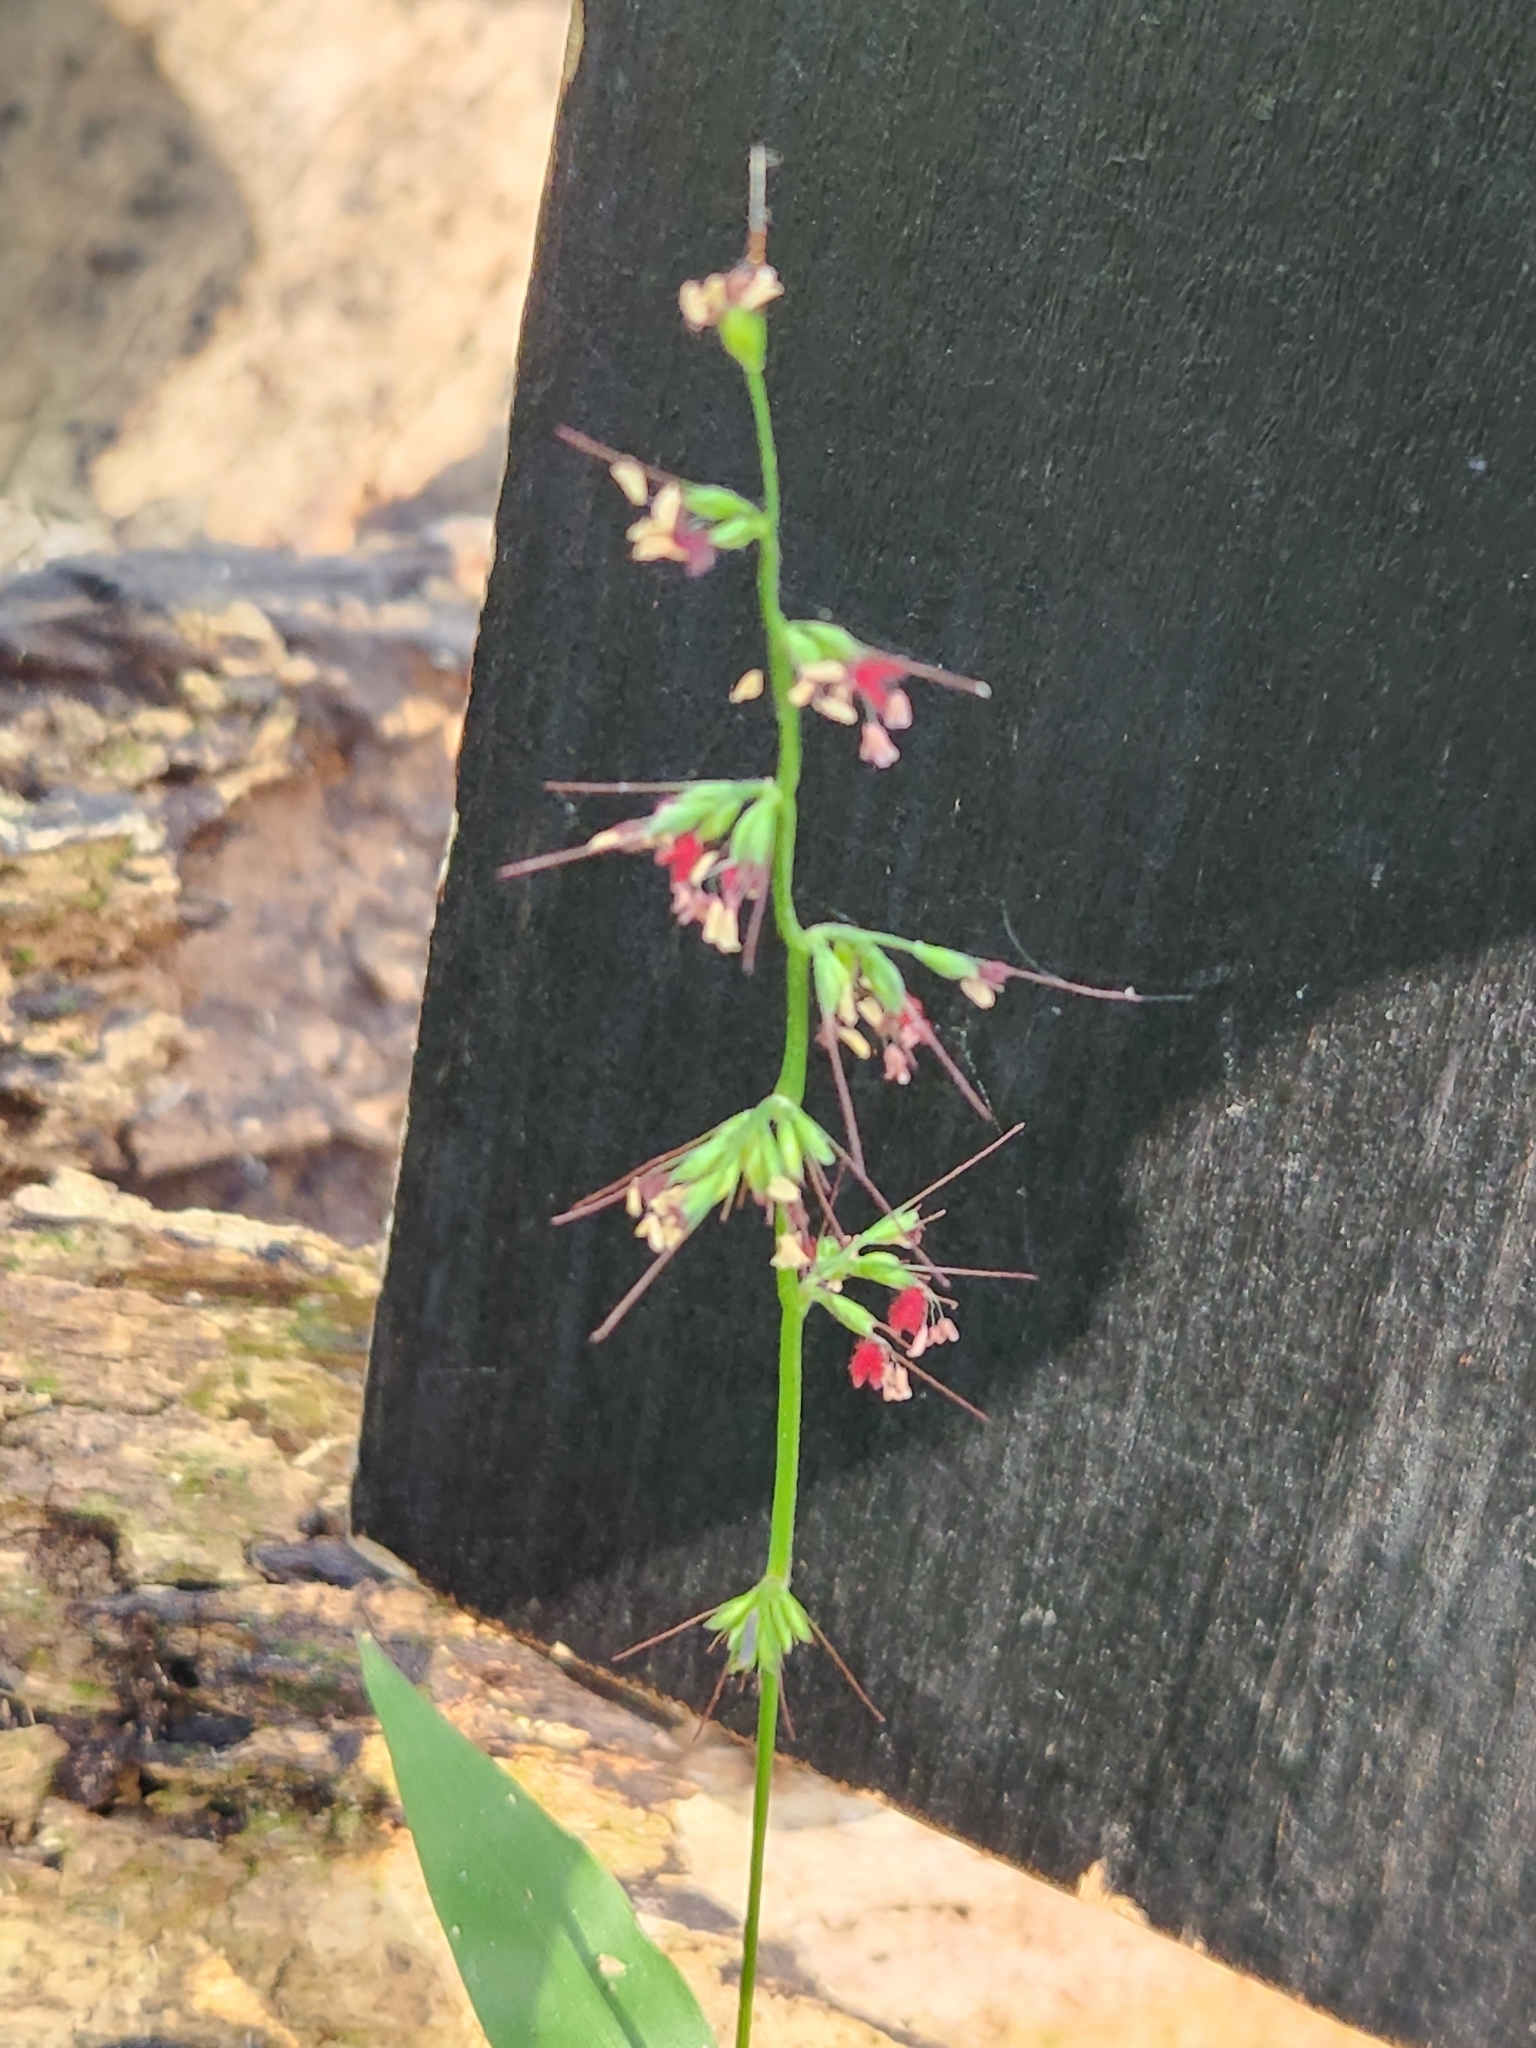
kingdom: Plantae
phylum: Tracheophyta
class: Liliopsida
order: Poales
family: Poaceae
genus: Oplismenus
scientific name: Oplismenus hirtellus
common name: Basketgrass
